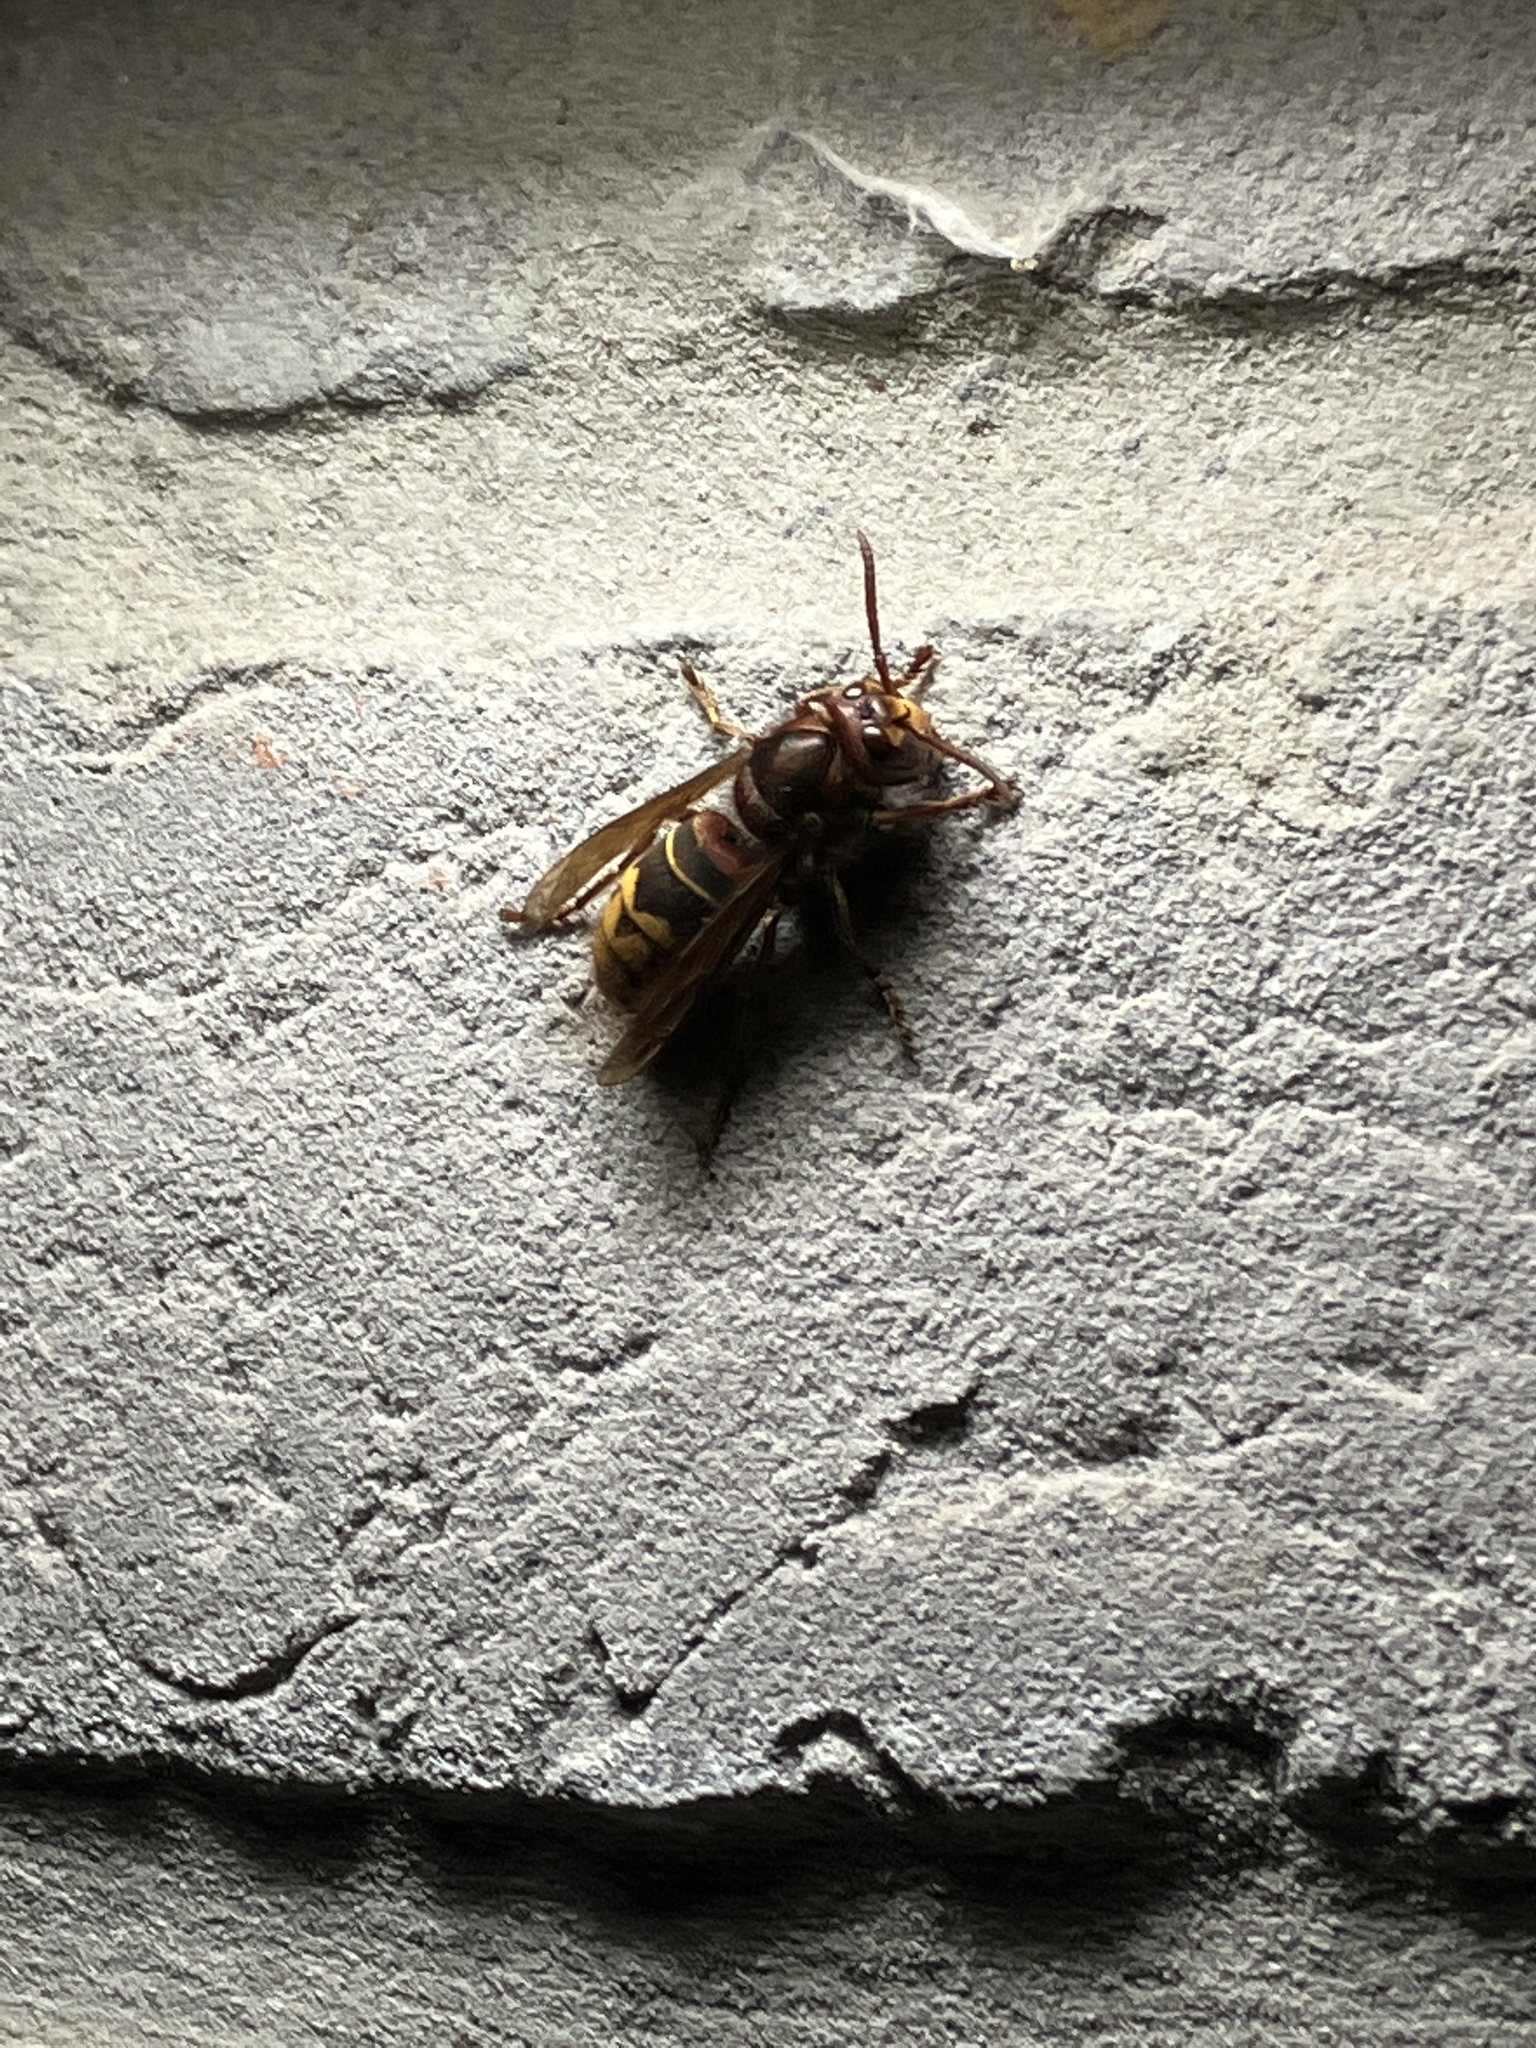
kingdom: Animalia
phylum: Arthropoda
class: Insecta
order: Hymenoptera
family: Vespidae
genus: Vespa
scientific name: Vespa crabro
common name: Hornet
